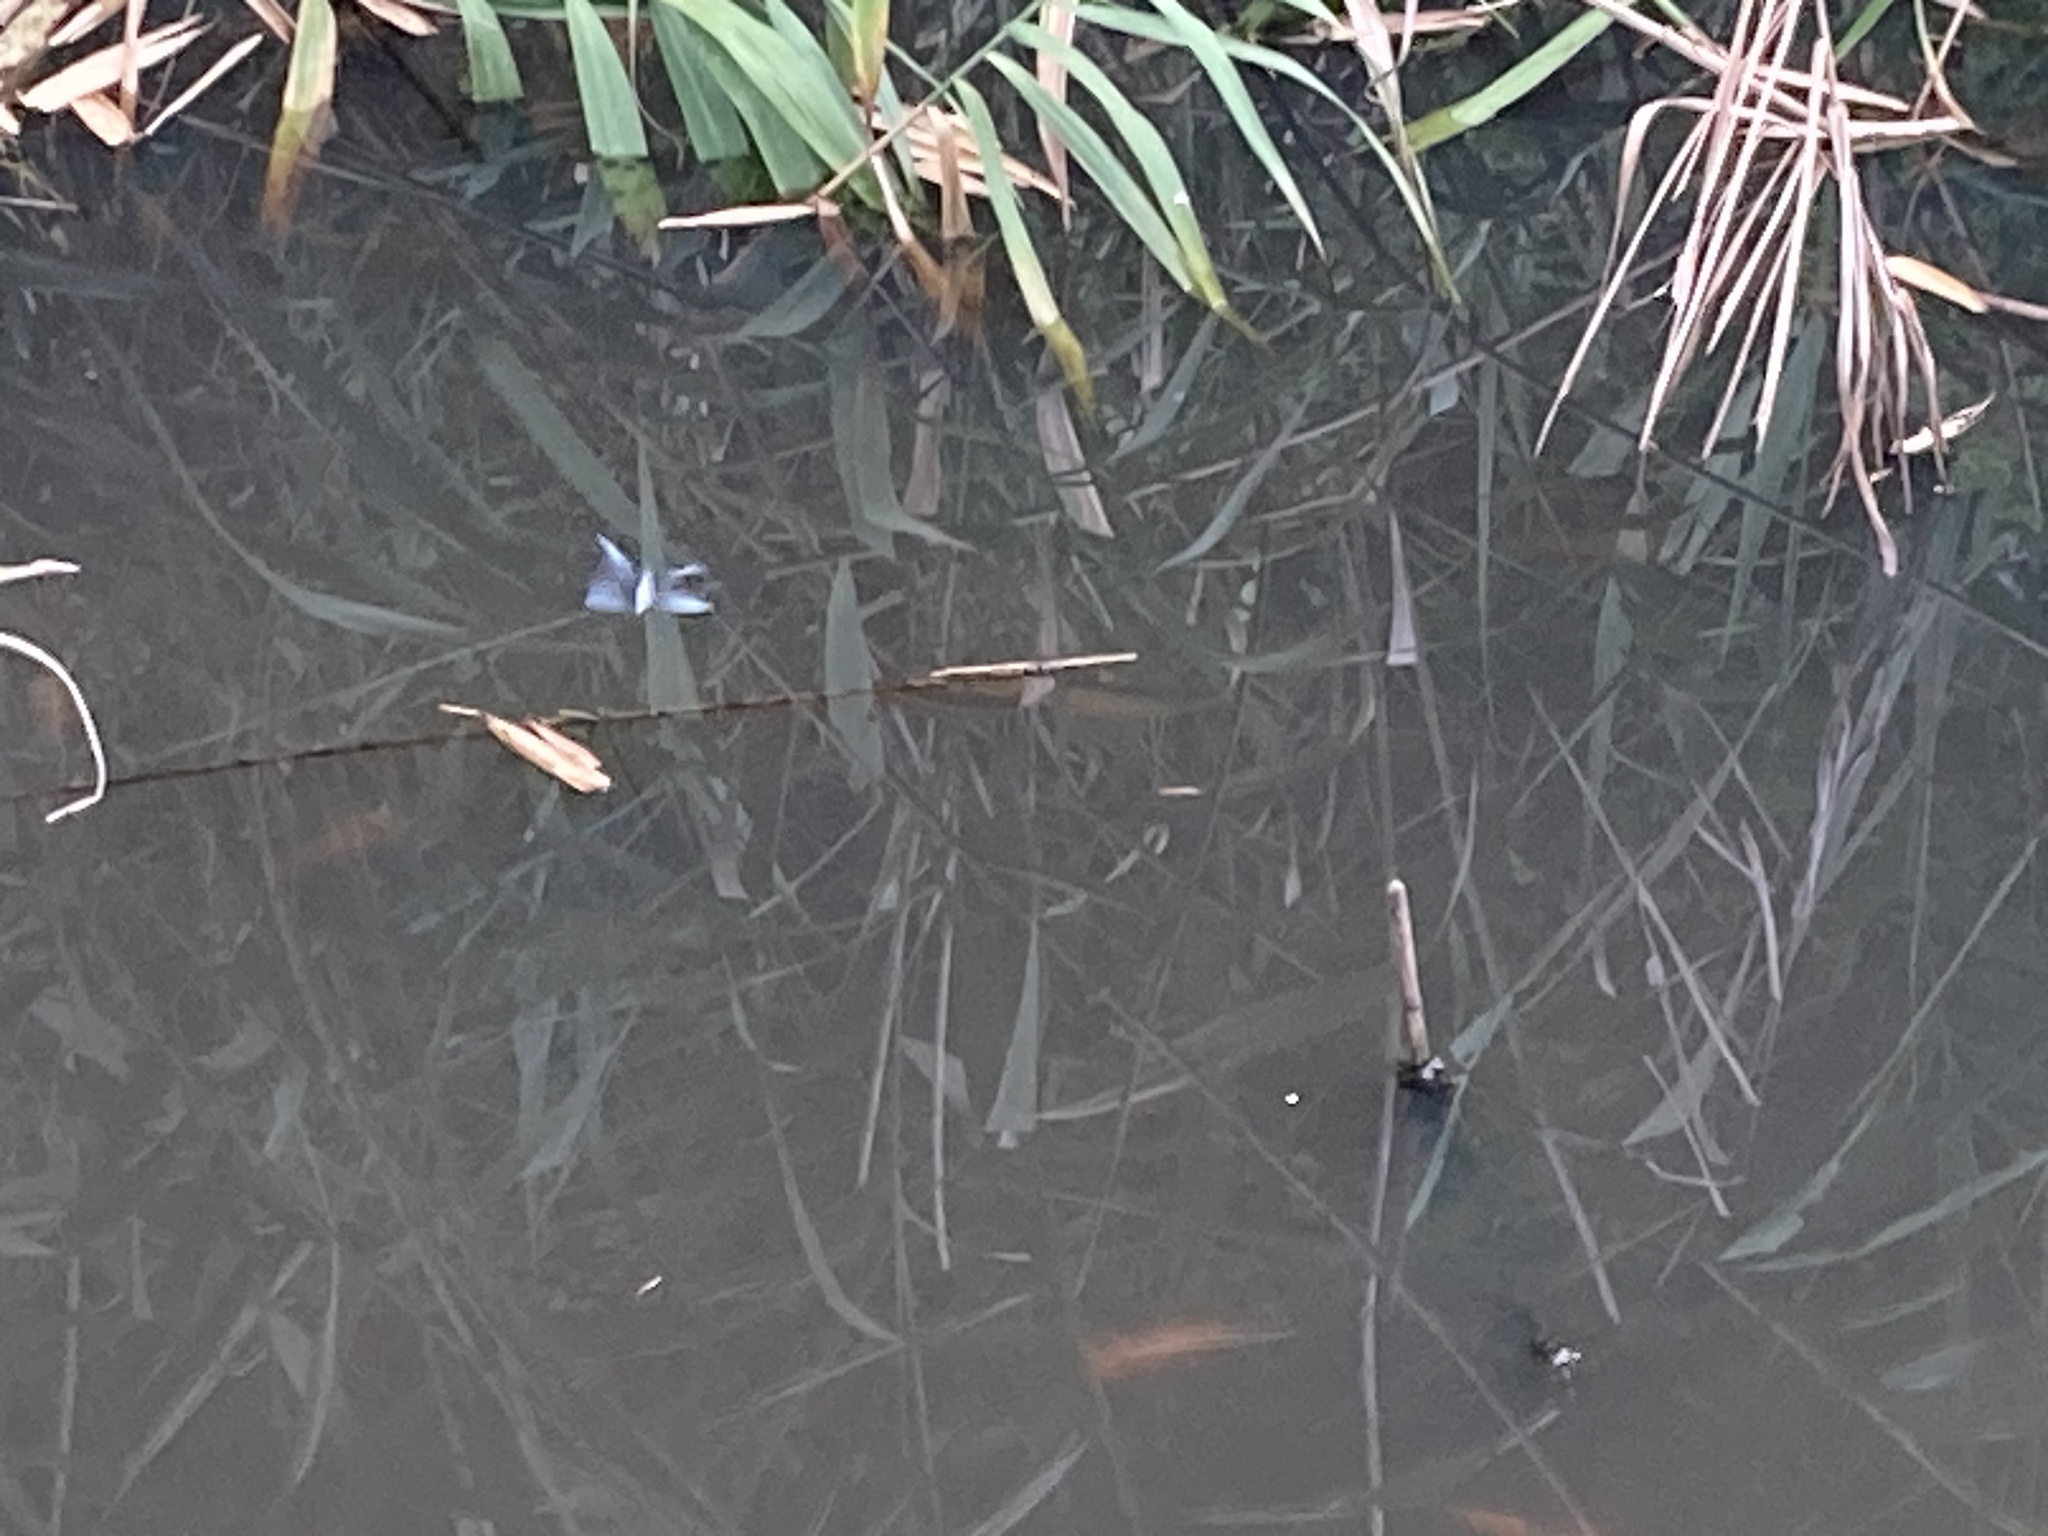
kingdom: Animalia
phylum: Arthropoda
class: Insecta
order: Odonata
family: Libellulidae
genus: Zyxomma
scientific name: Zyxomma obtusum
